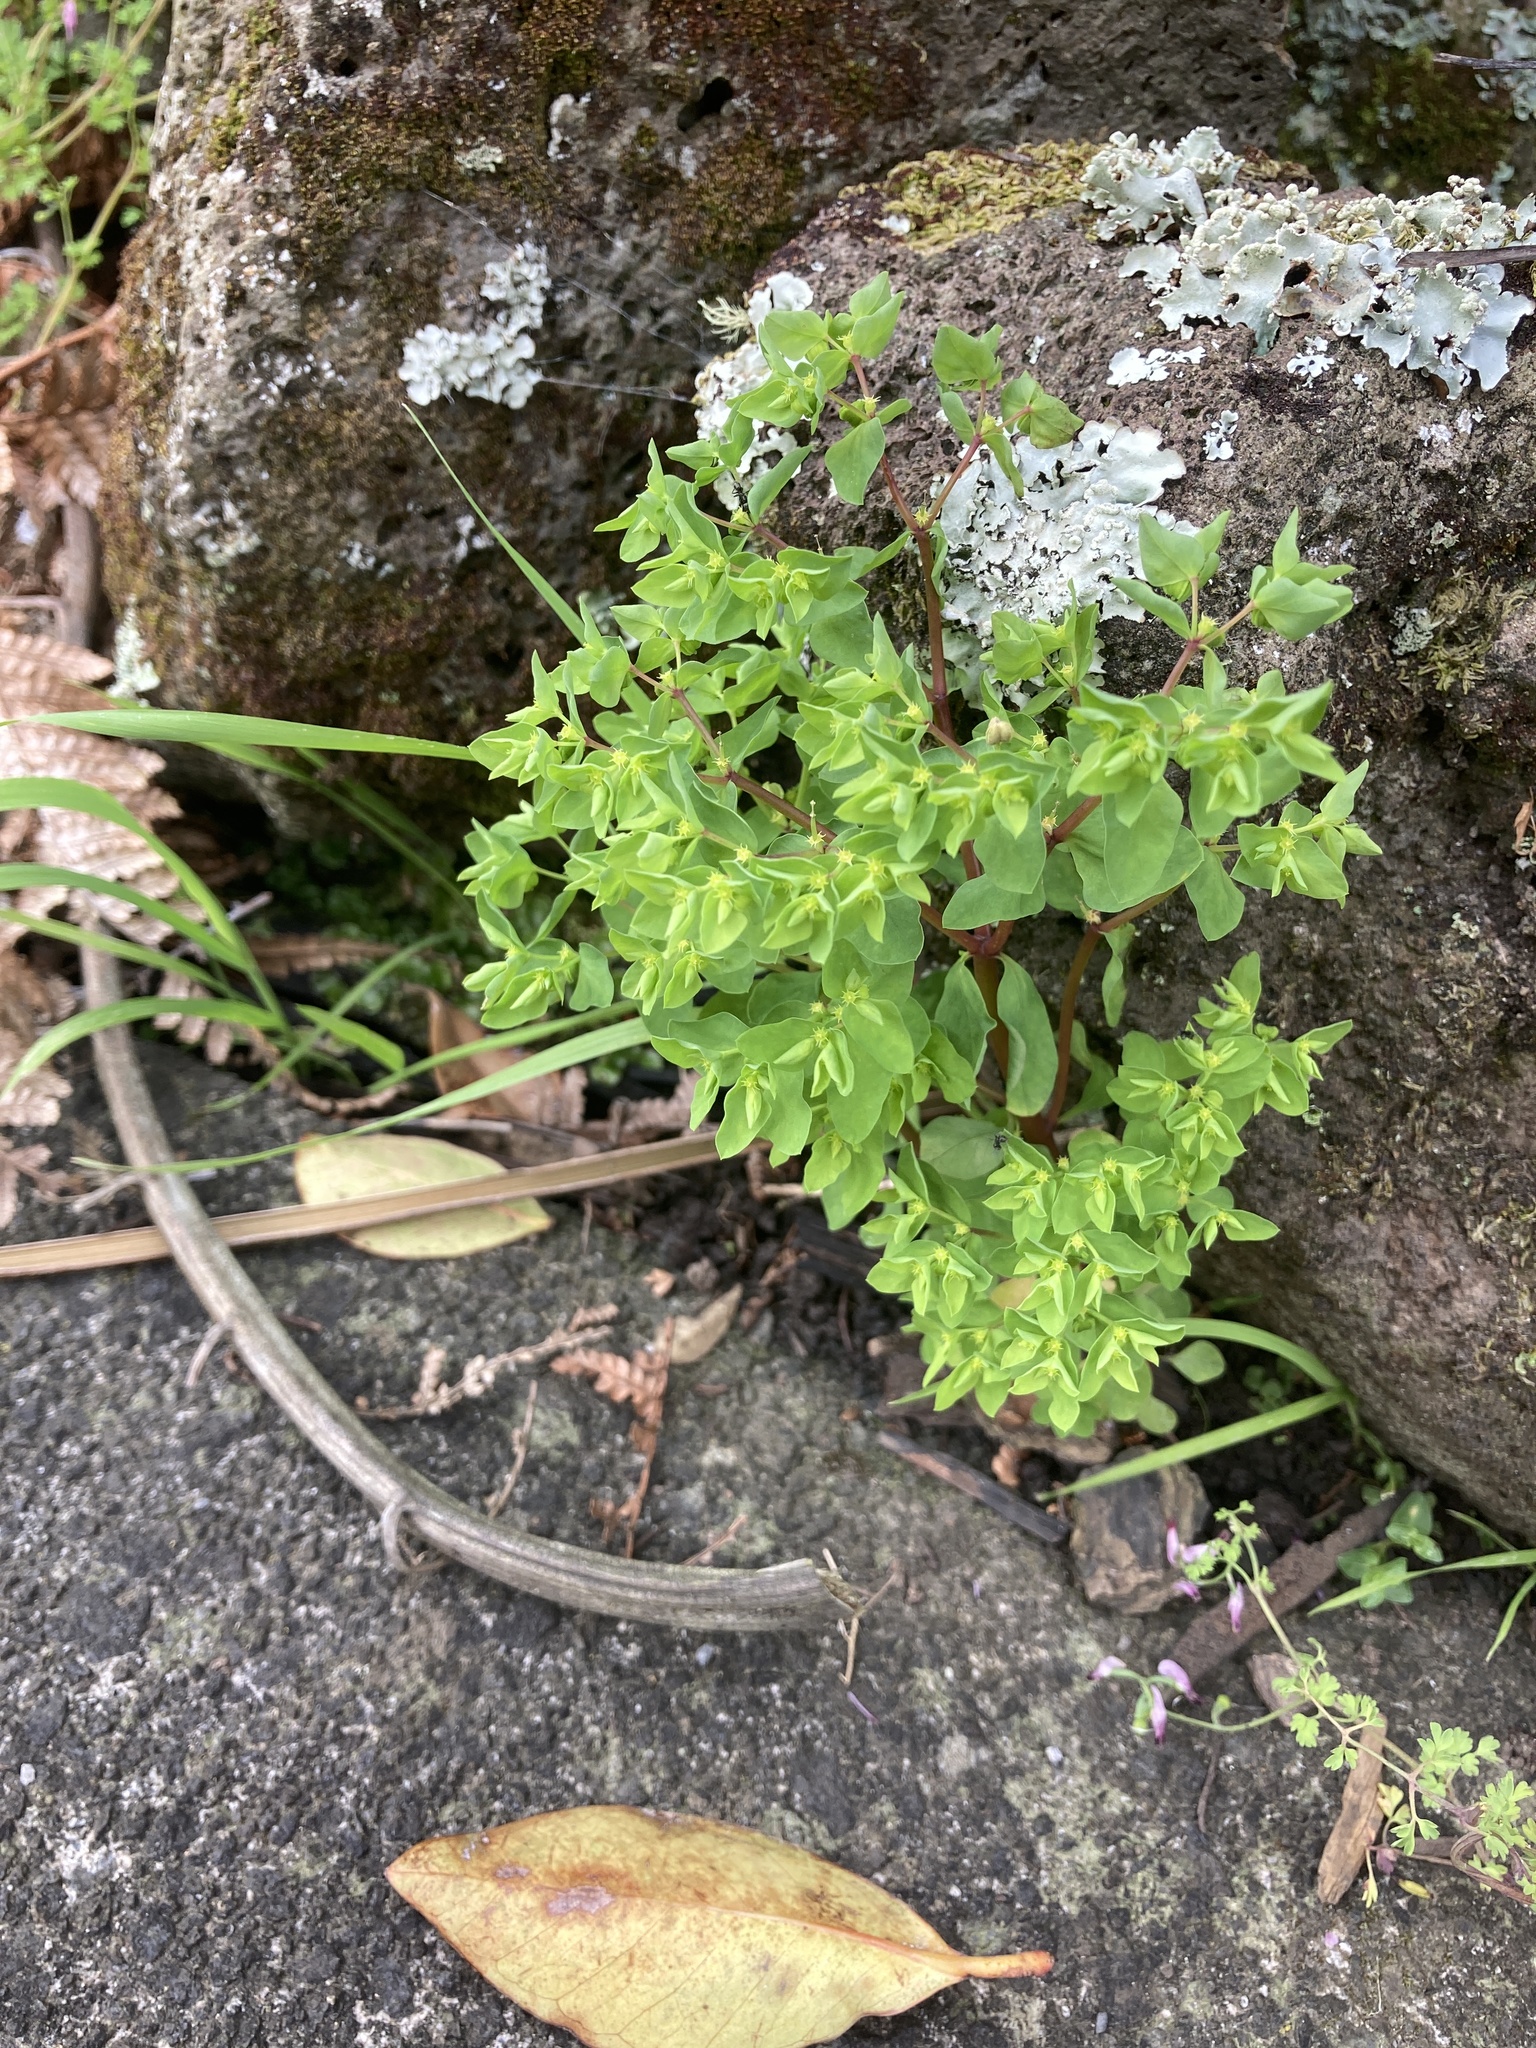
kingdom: Plantae
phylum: Tracheophyta
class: Magnoliopsida
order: Malpighiales
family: Euphorbiaceae
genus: Euphorbia
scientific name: Euphorbia peplus
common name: Petty spurge
